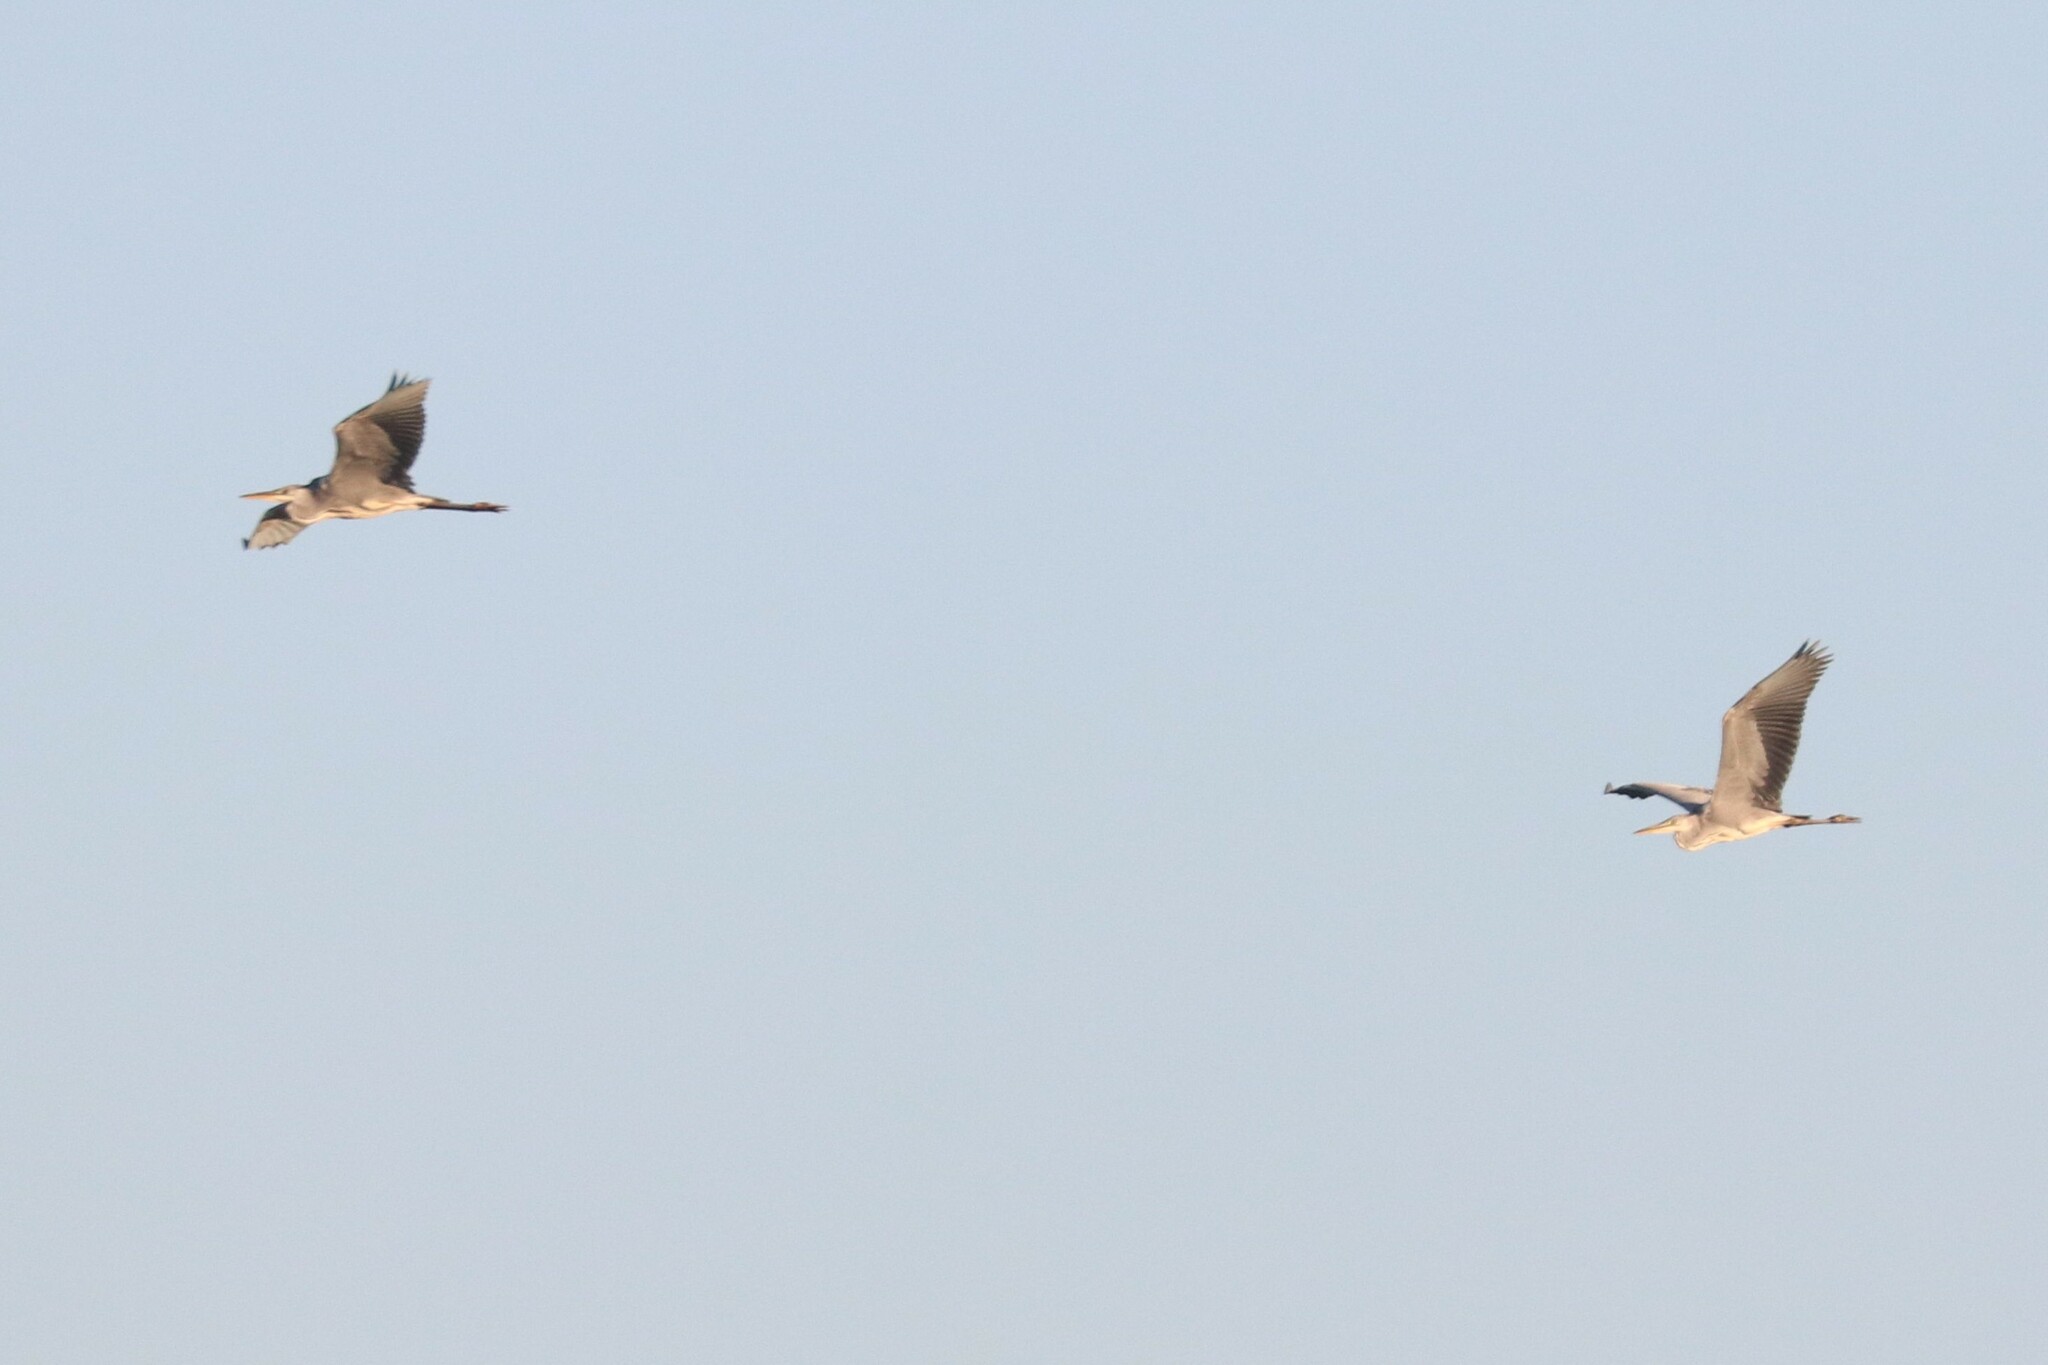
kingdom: Animalia
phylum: Chordata
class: Aves
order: Pelecaniformes
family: Ardeidae
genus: Ardea
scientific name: Ardea cinerea
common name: Grey heron
